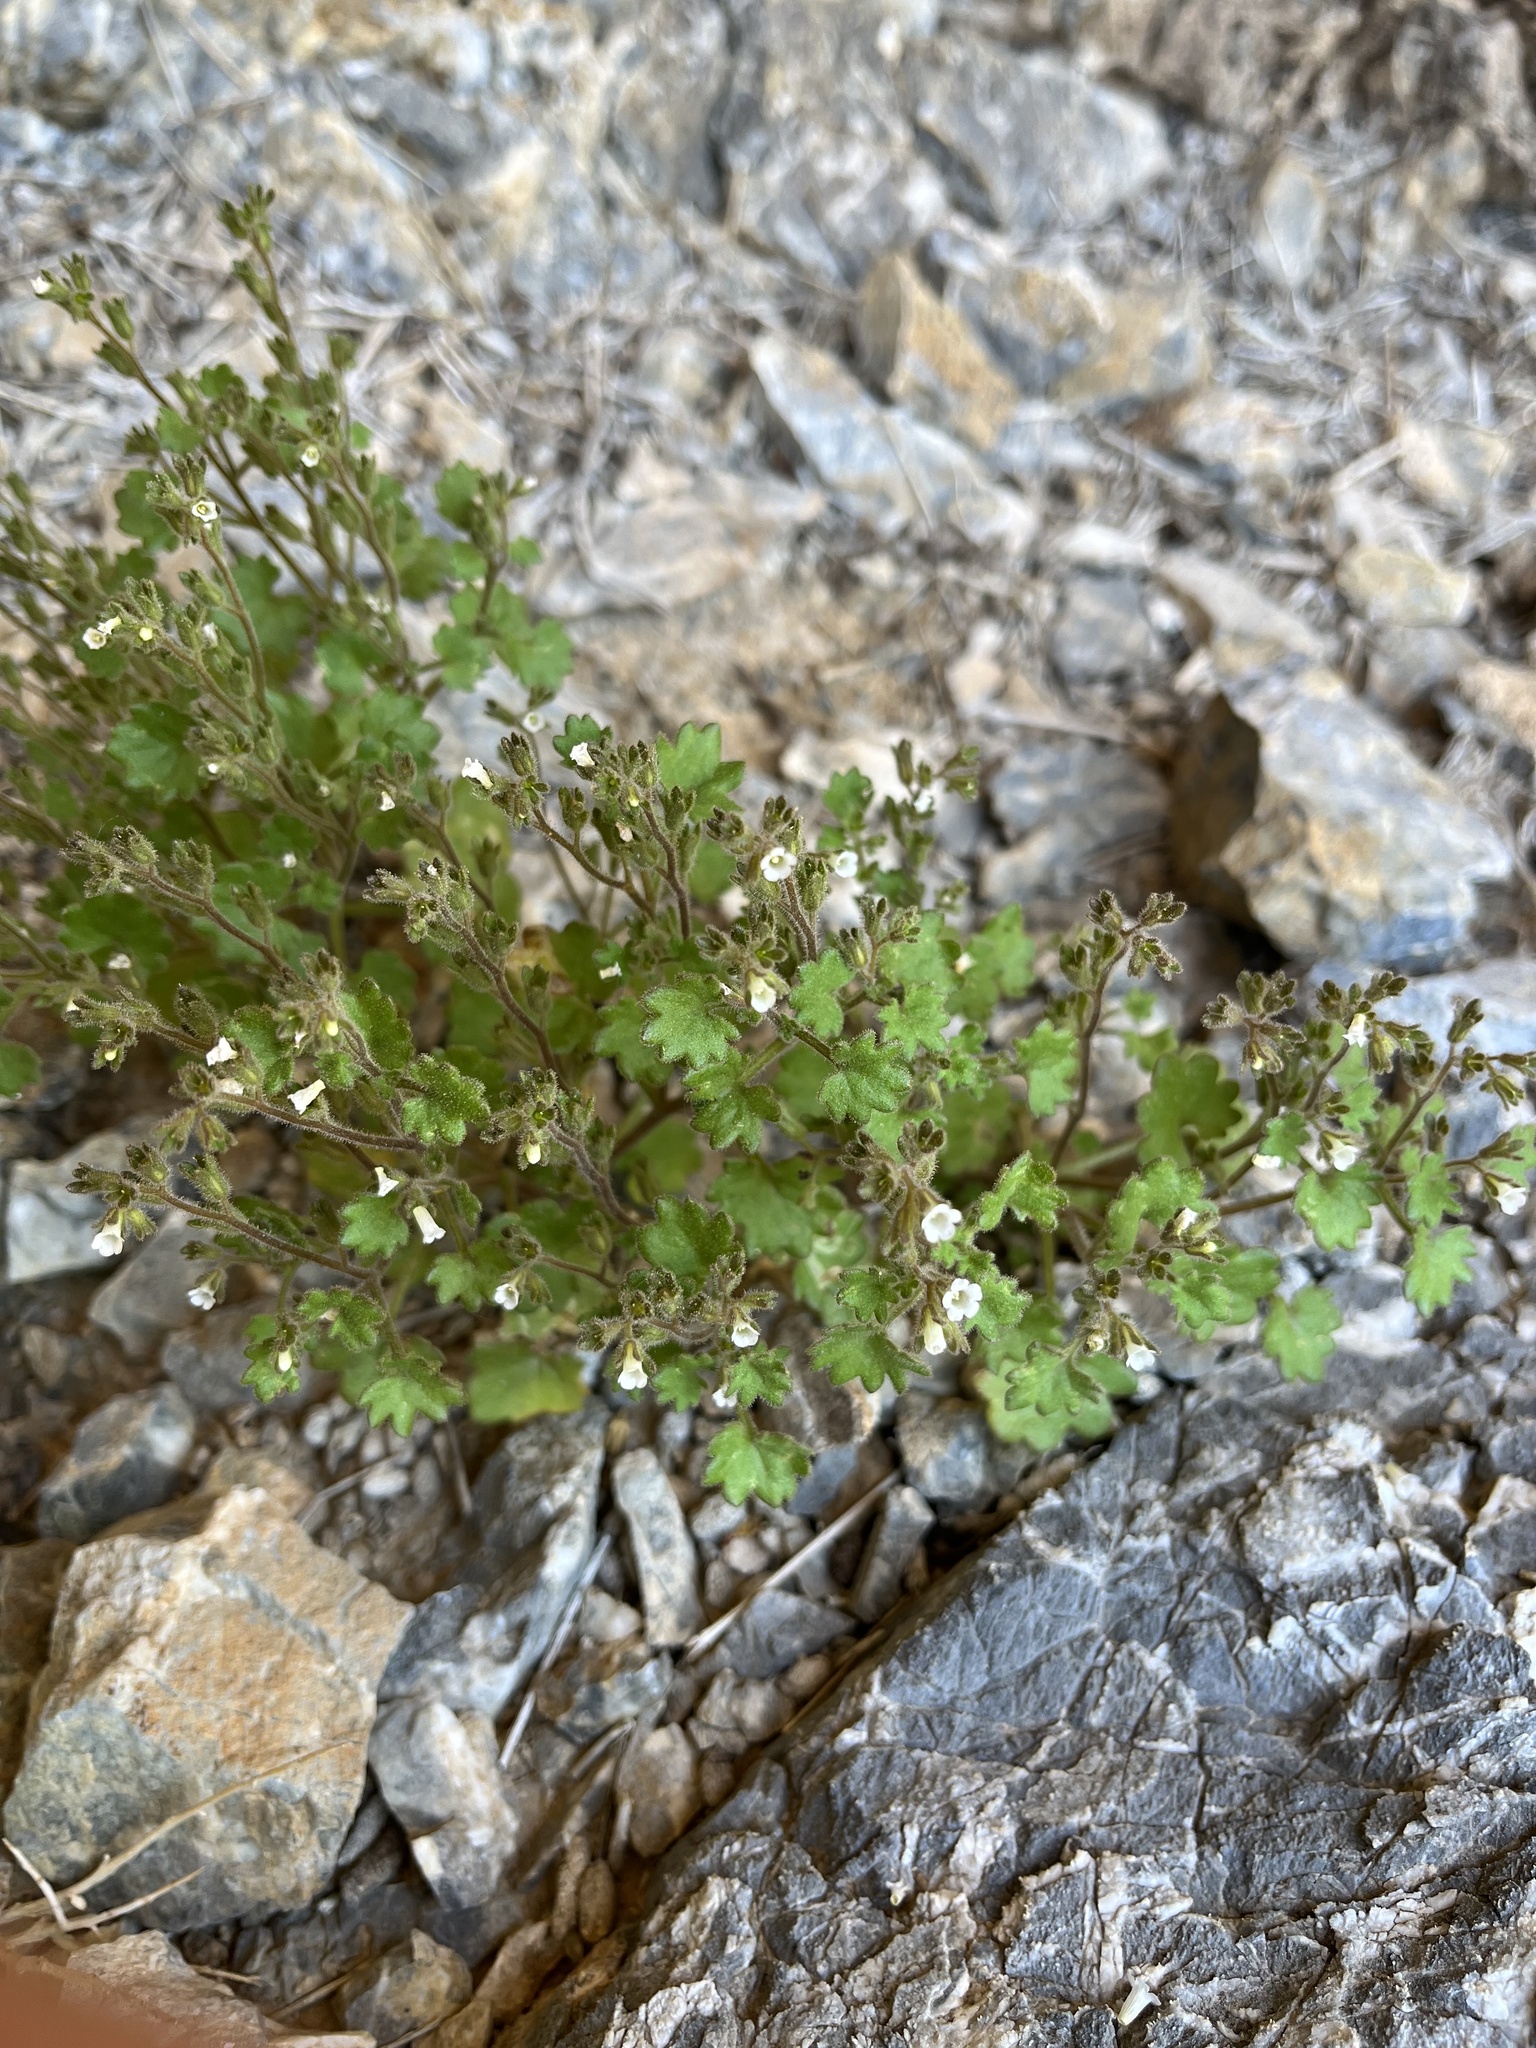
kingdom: Plantae
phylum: Tracheophyta
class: Magnoliopsida
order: Boraginales
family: Hydrophyllaceae
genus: Phacelia
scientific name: Phacelia rotundifolia
